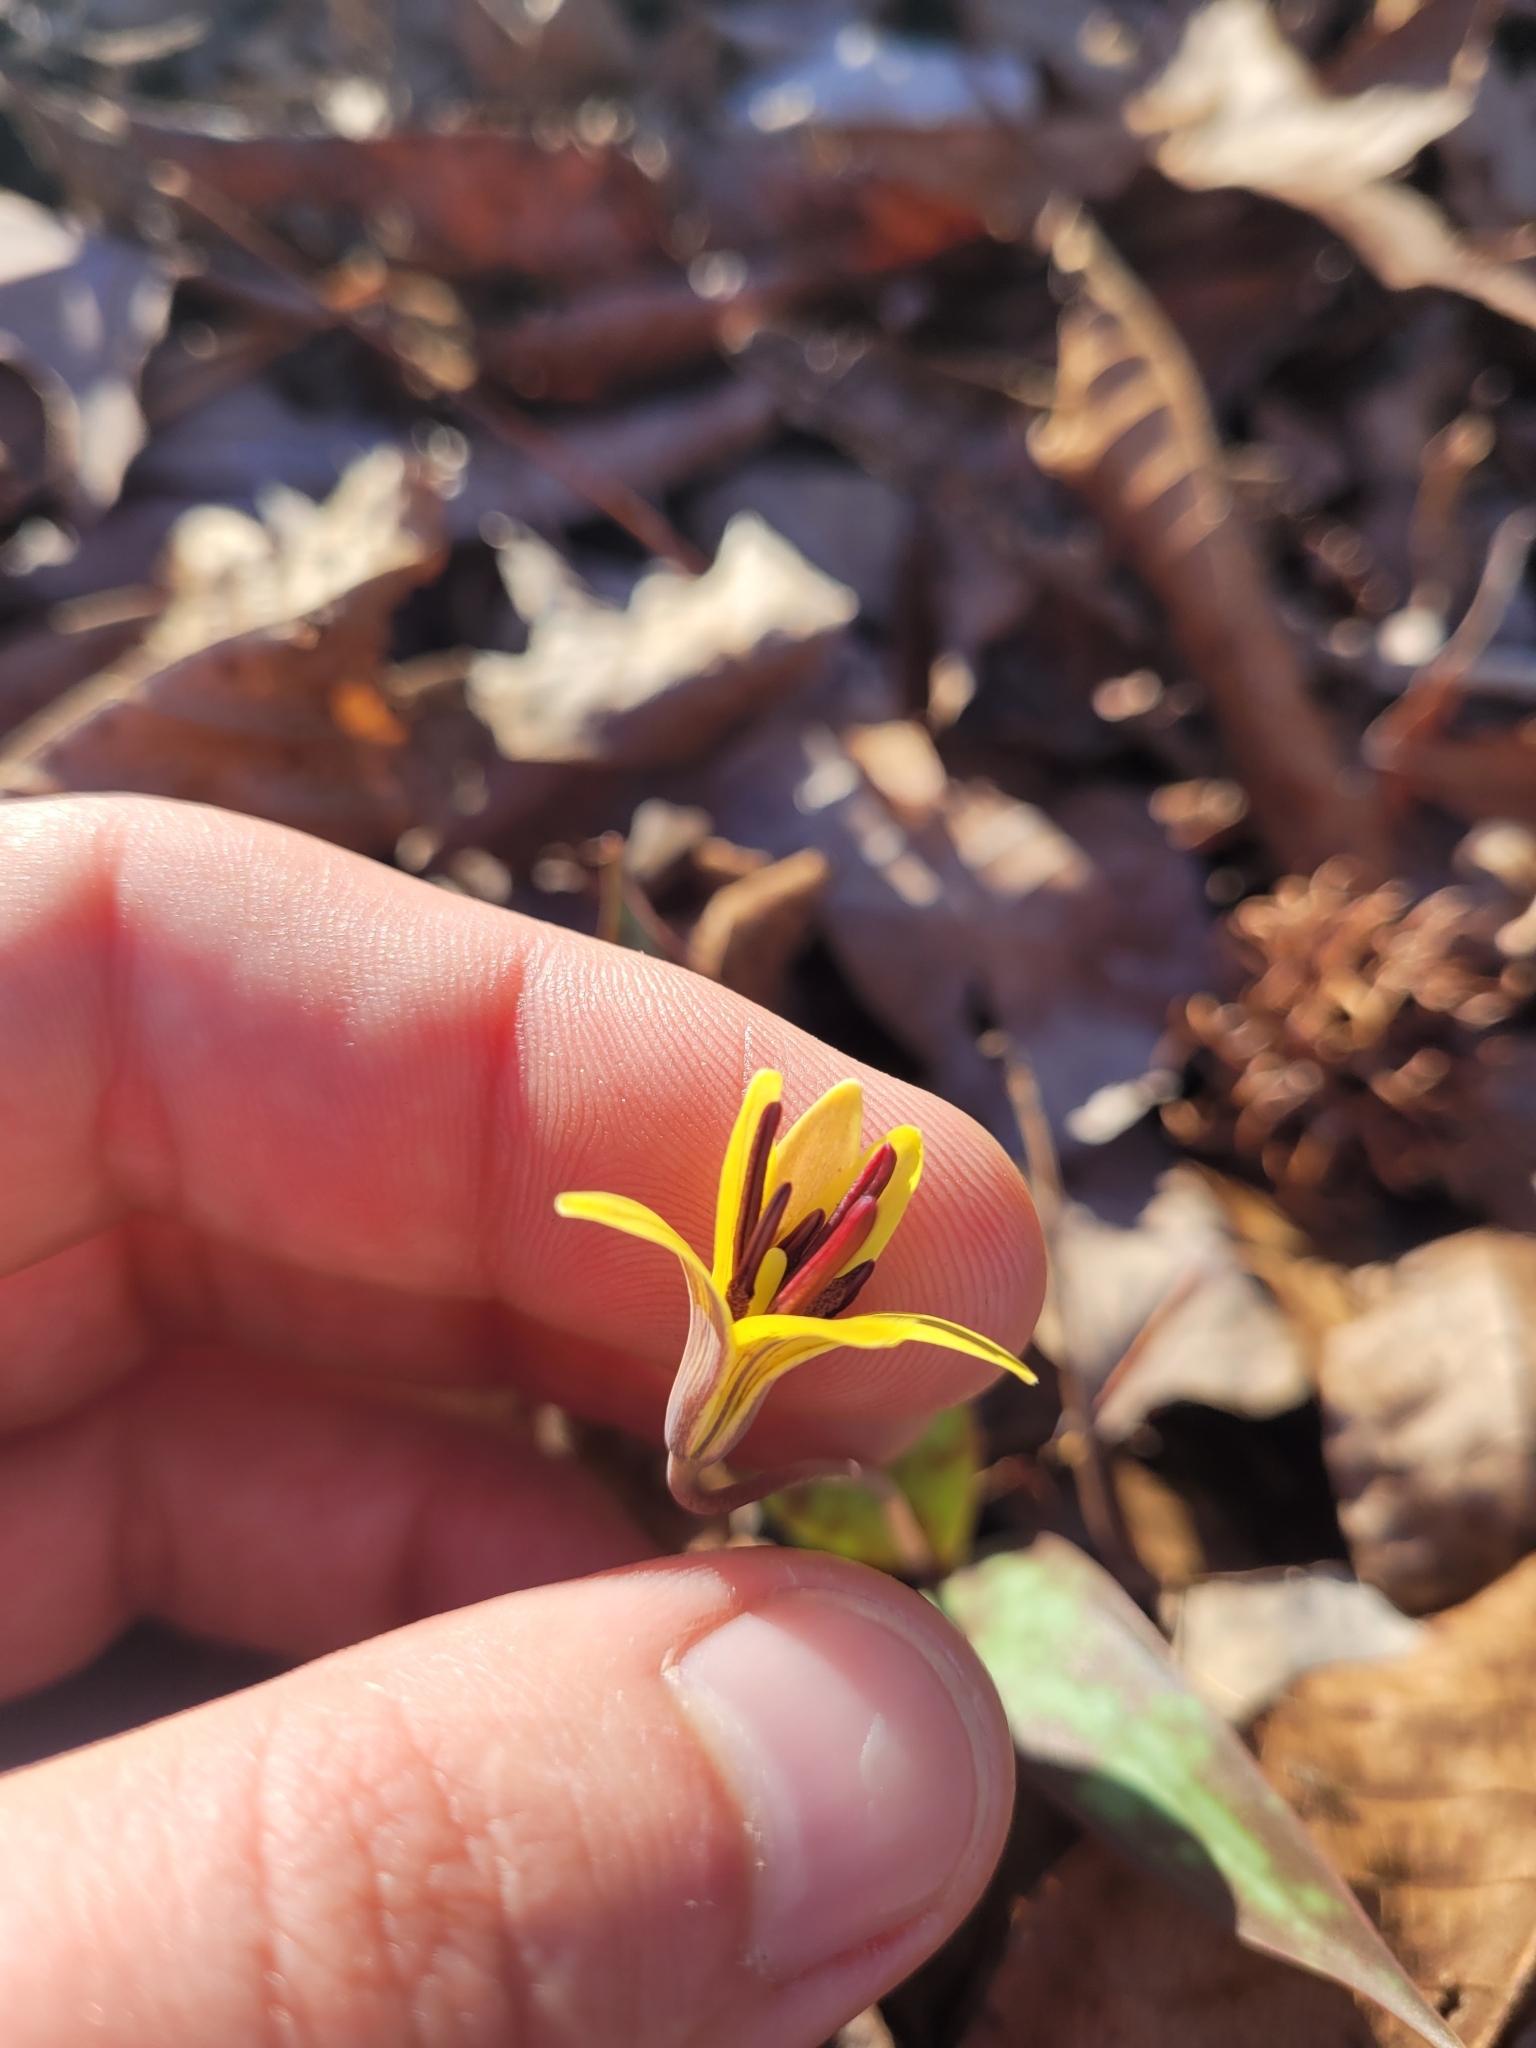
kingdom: Plantae
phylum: Tracheophyta
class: Liliopsida
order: Liliales
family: Liliaceae
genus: Erythronium
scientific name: Erythronium umbilicatum
